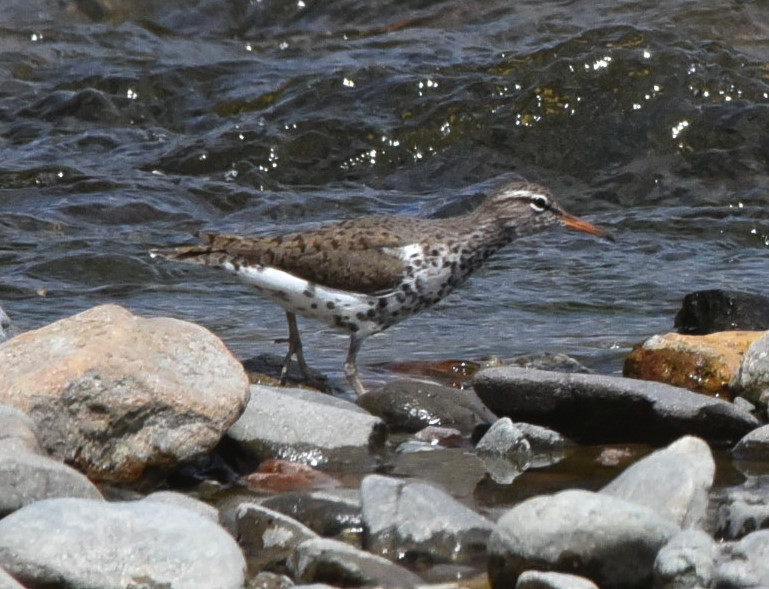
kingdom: Animalia
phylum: Chordata
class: Aves
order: Charadriiformes
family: Scolopacidae
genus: Actitis
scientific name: Actitis macularius
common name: Spotted sandpiper
